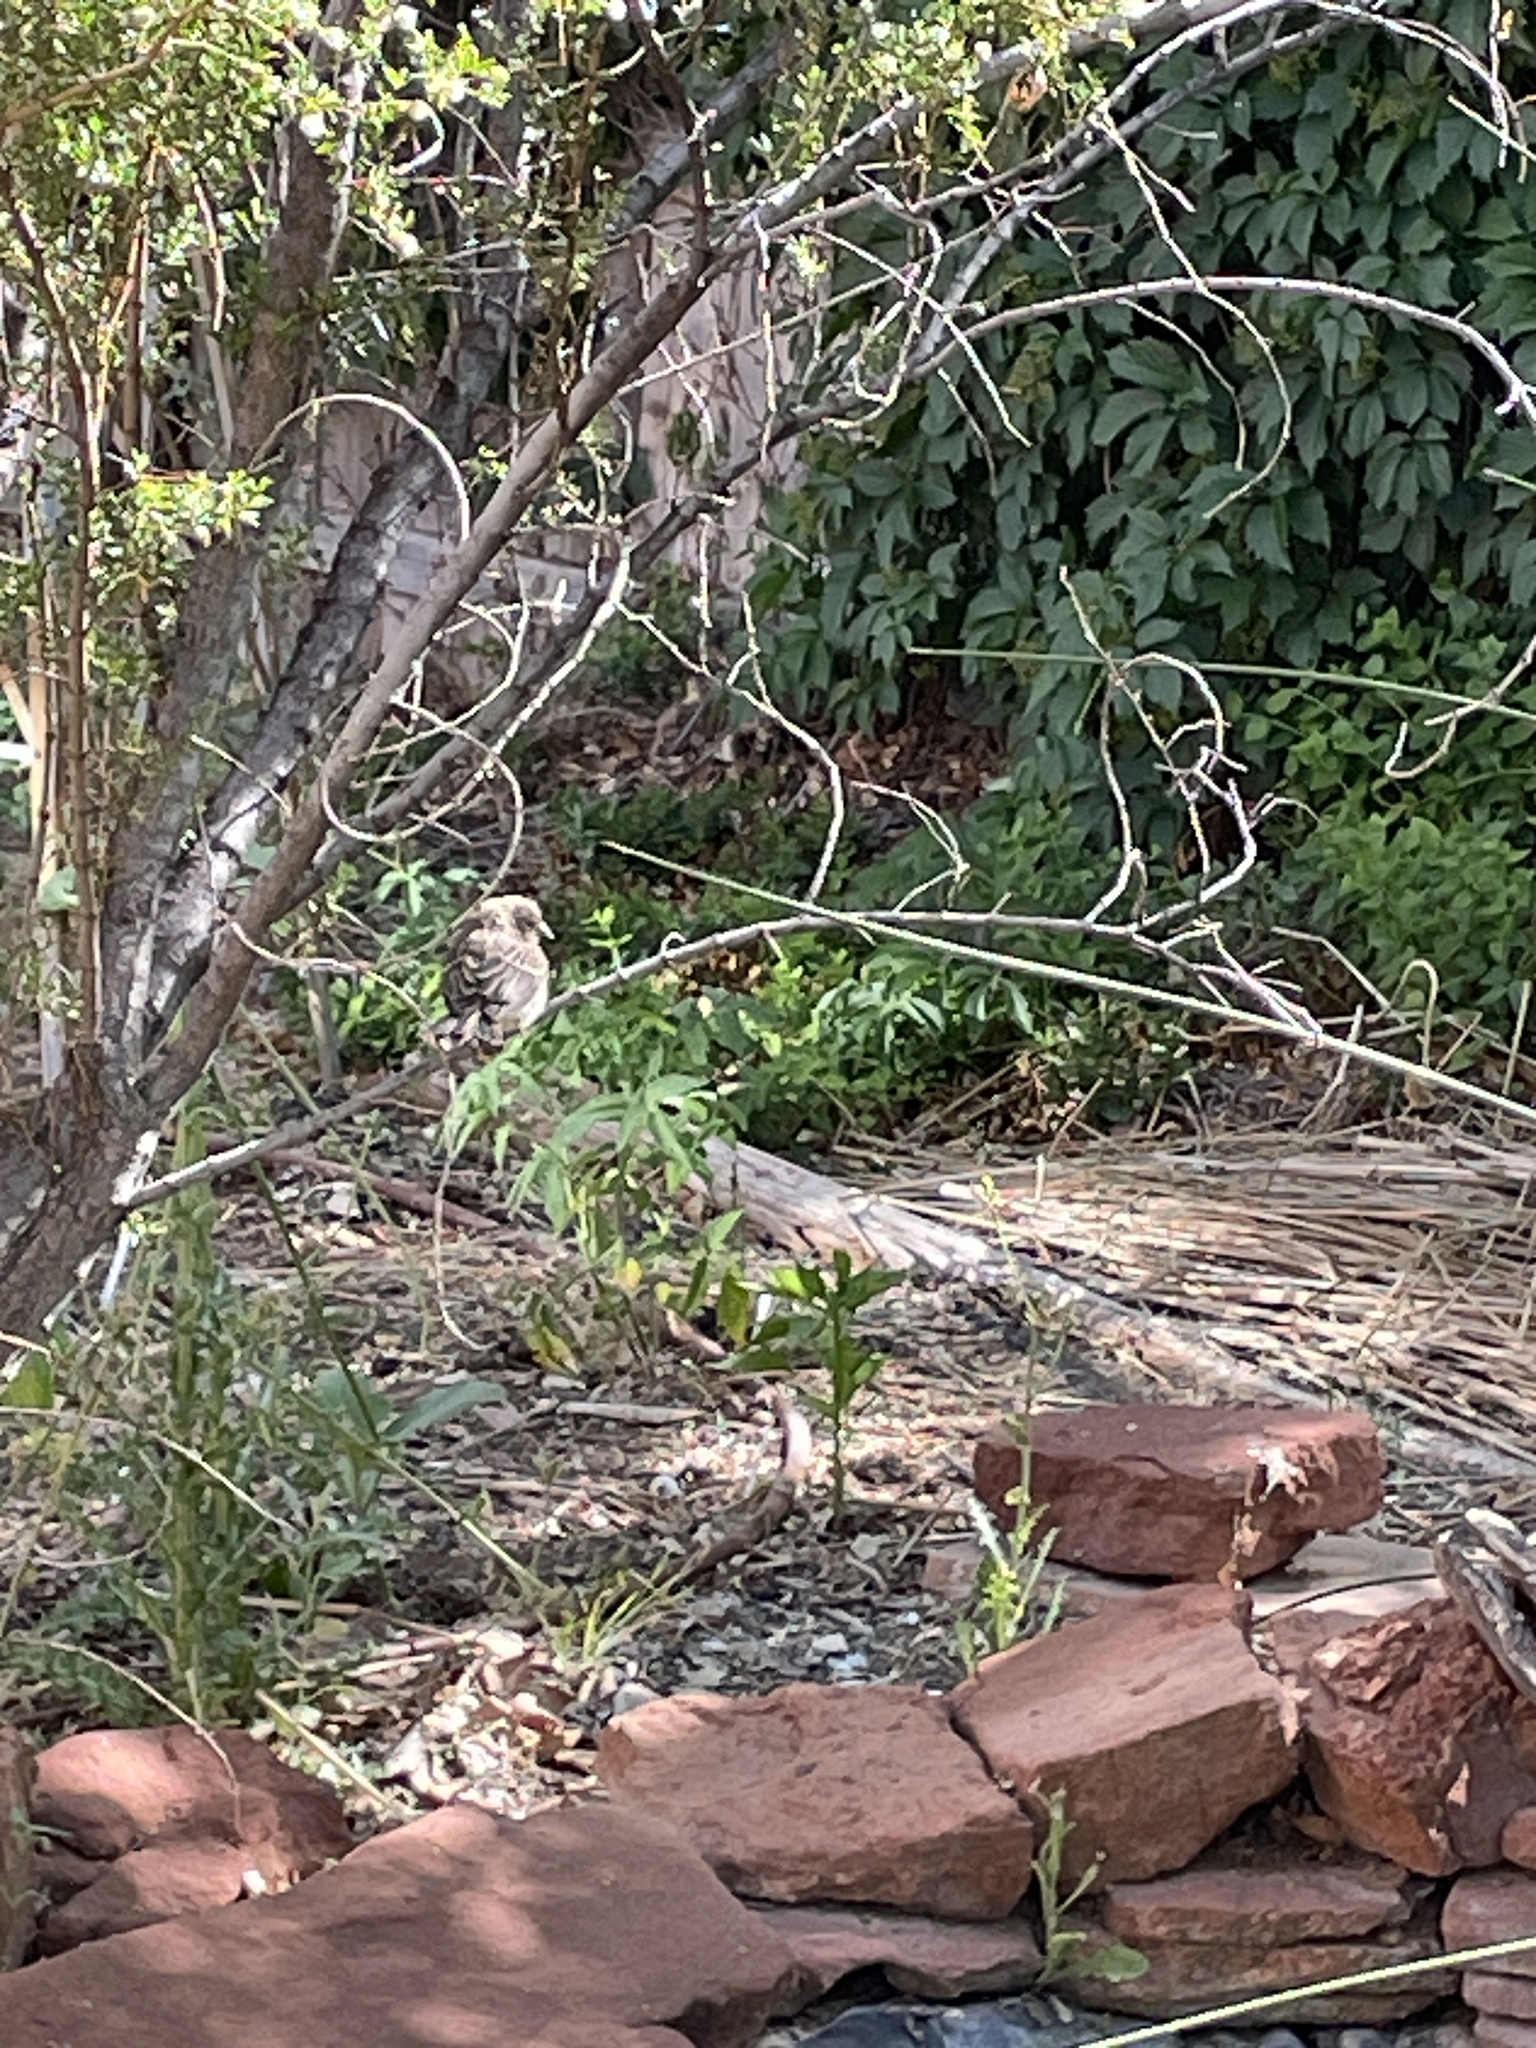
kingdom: Animalia
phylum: Chordata
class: Aves
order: Passeriformes
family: Fringillidae
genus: Haemorhous
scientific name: Haemorhous mexicanus
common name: House finch
